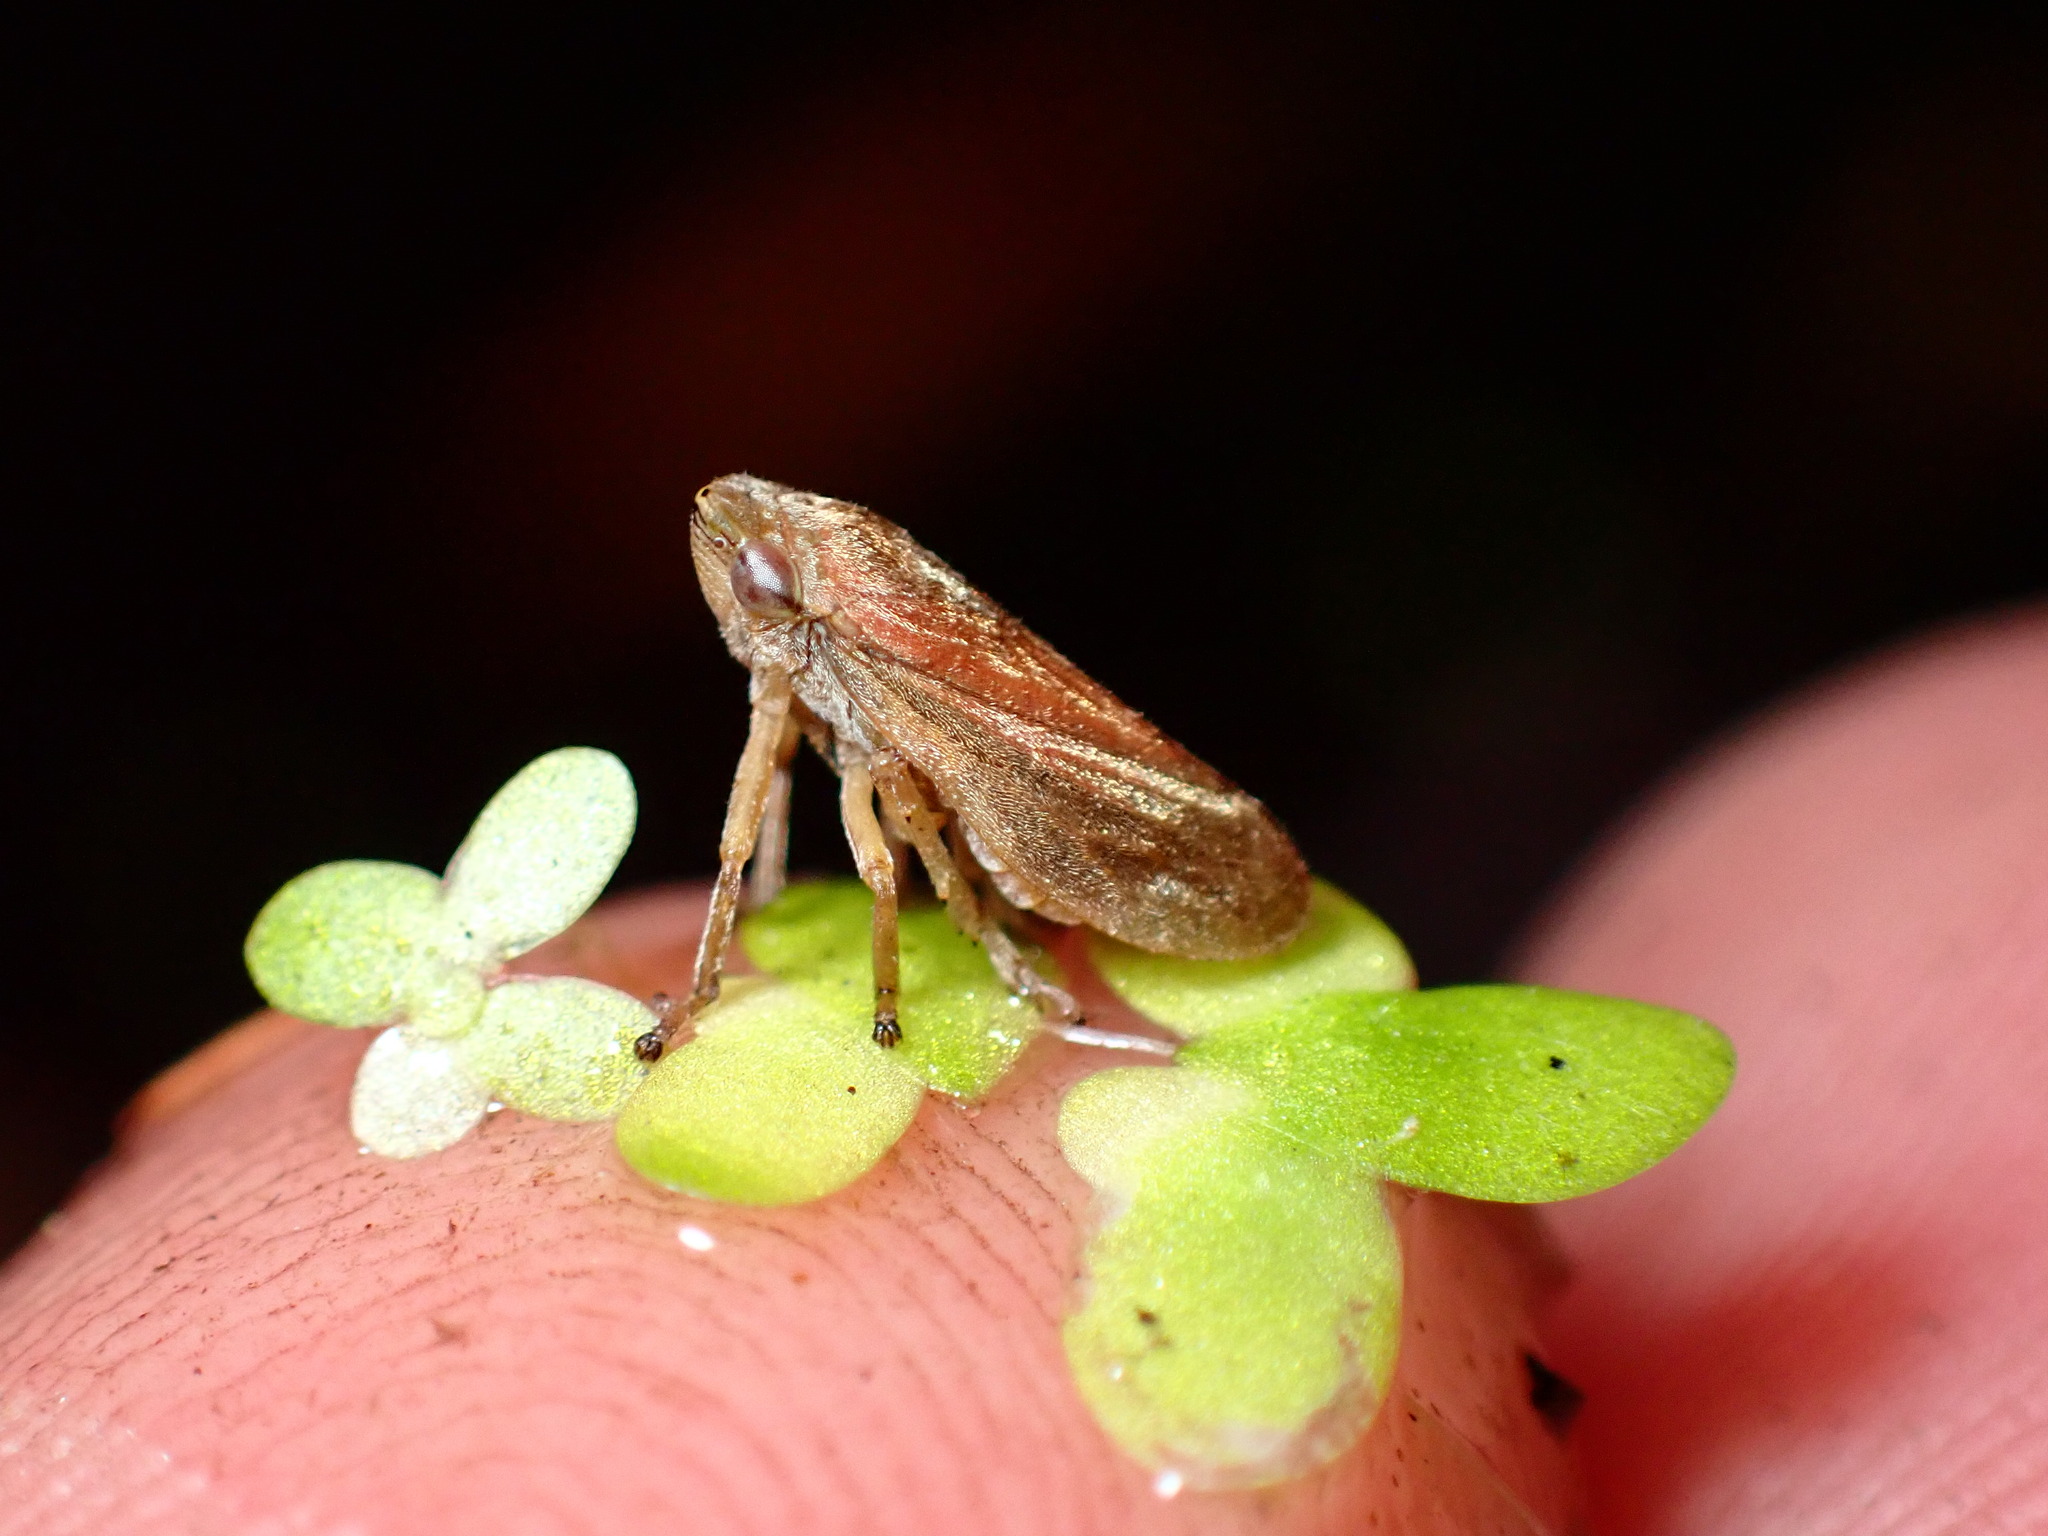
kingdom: Animalia
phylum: Arthropoda
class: Insecta
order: Hemiptera
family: Aphrophoridae
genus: Philaenus
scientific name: Philaenus spumarius
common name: Meadow spittlebug
